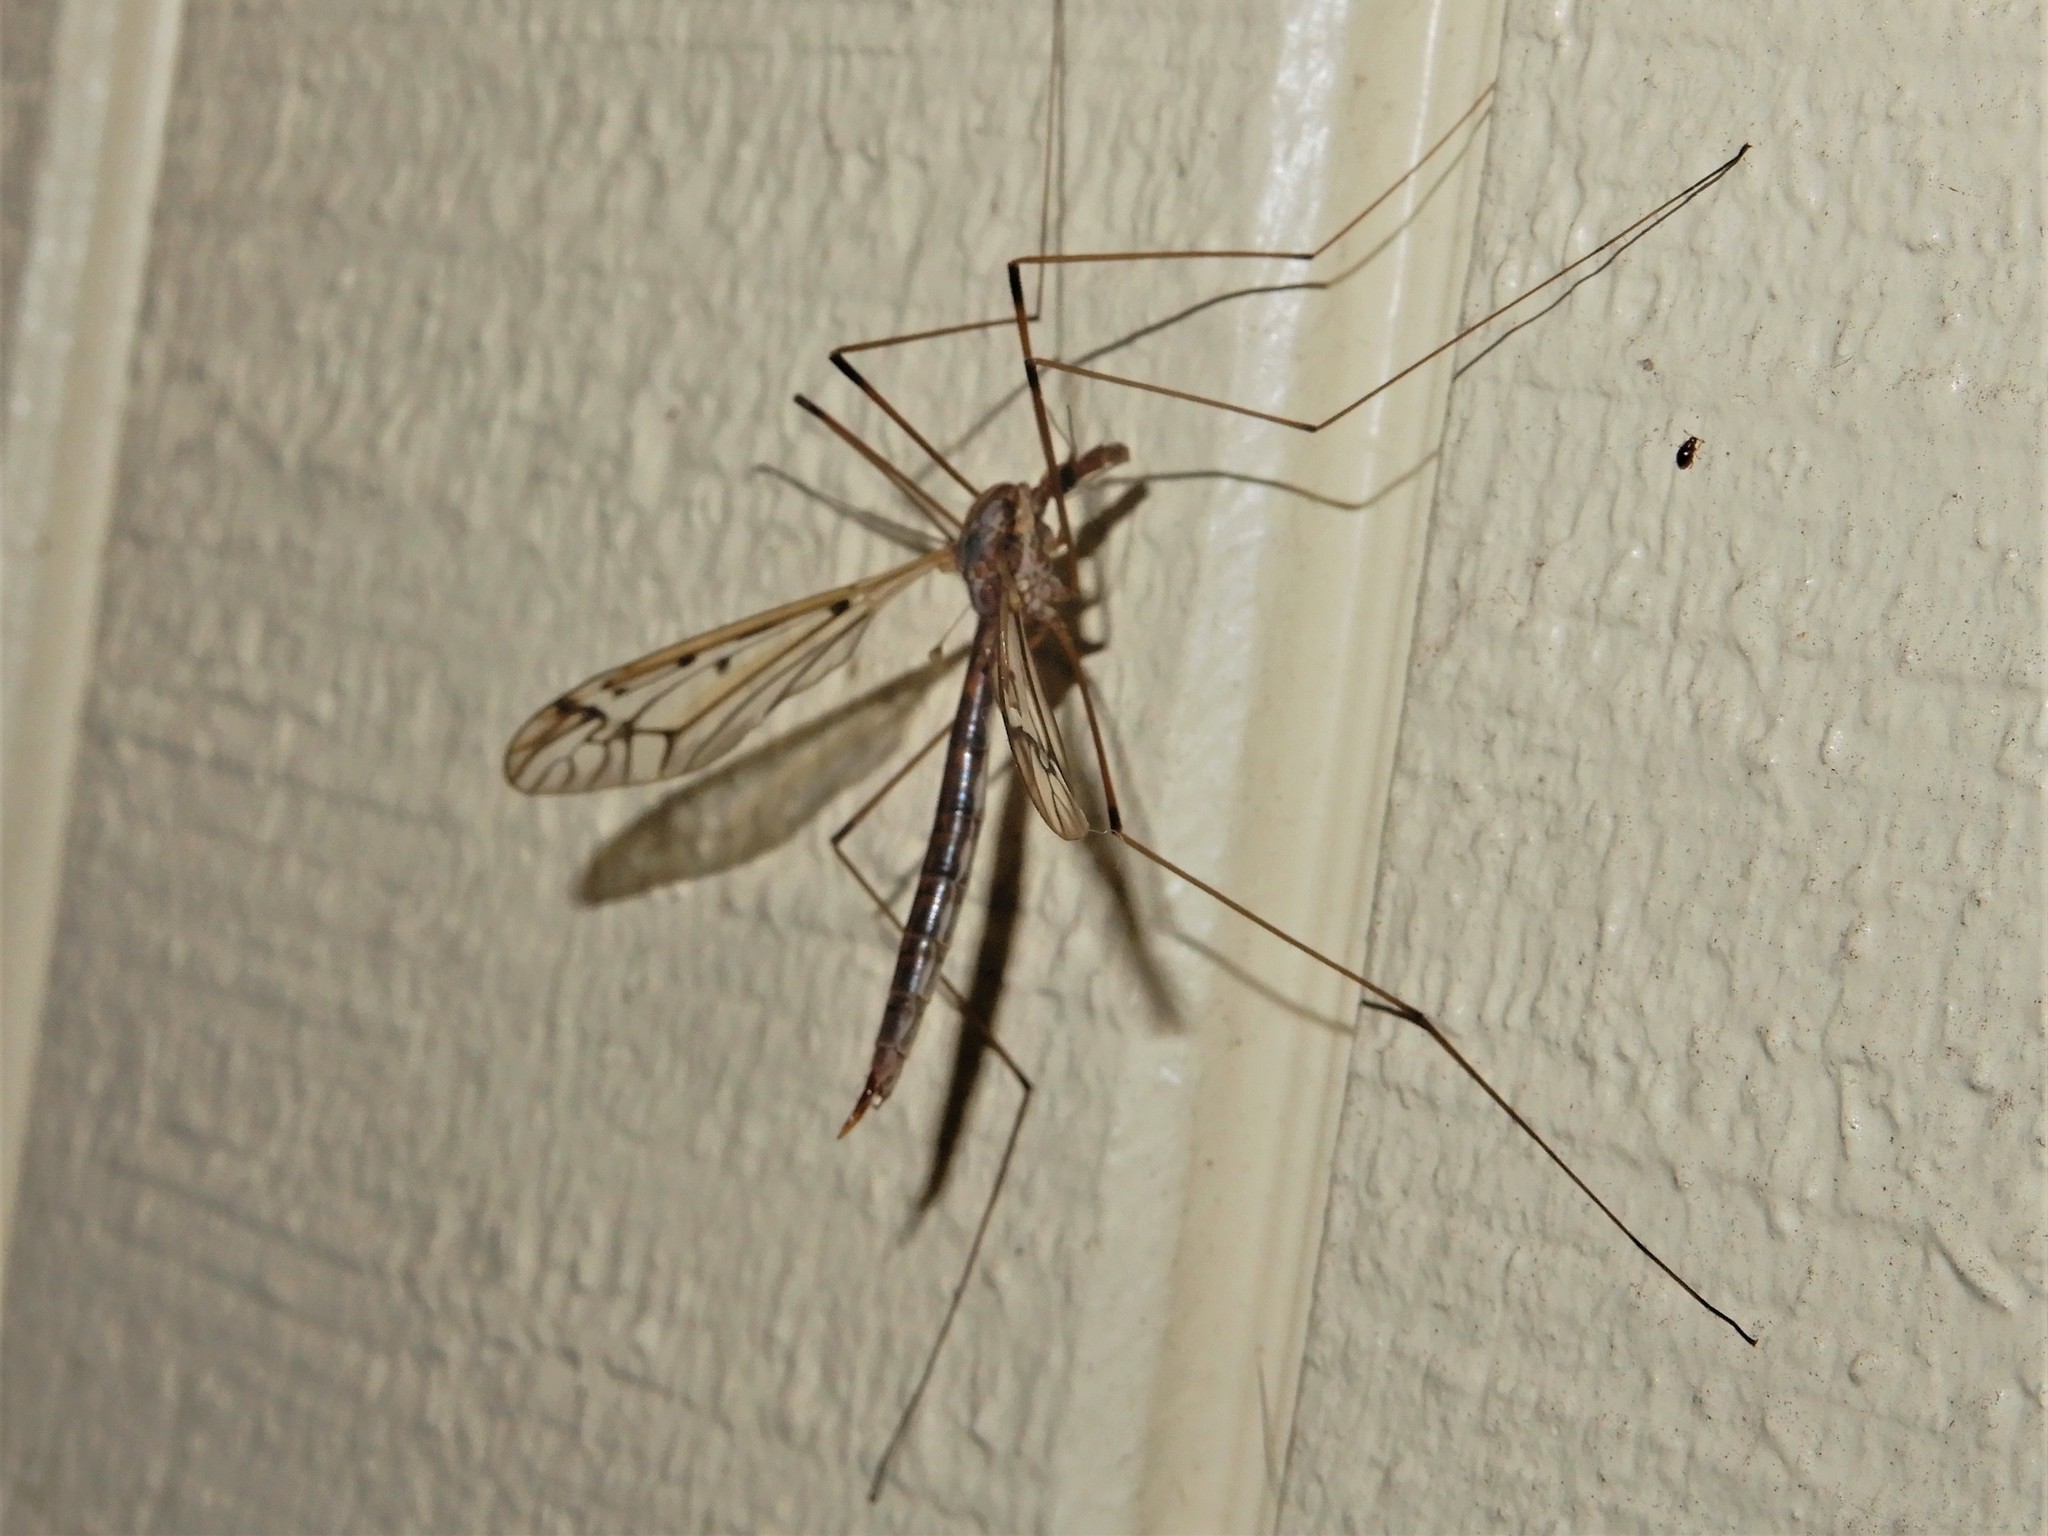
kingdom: Animalia
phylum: Arthropoda
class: Insecta
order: Diptera
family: Tipulidae
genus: Zelandotipula
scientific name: Zelandotipula novarae
